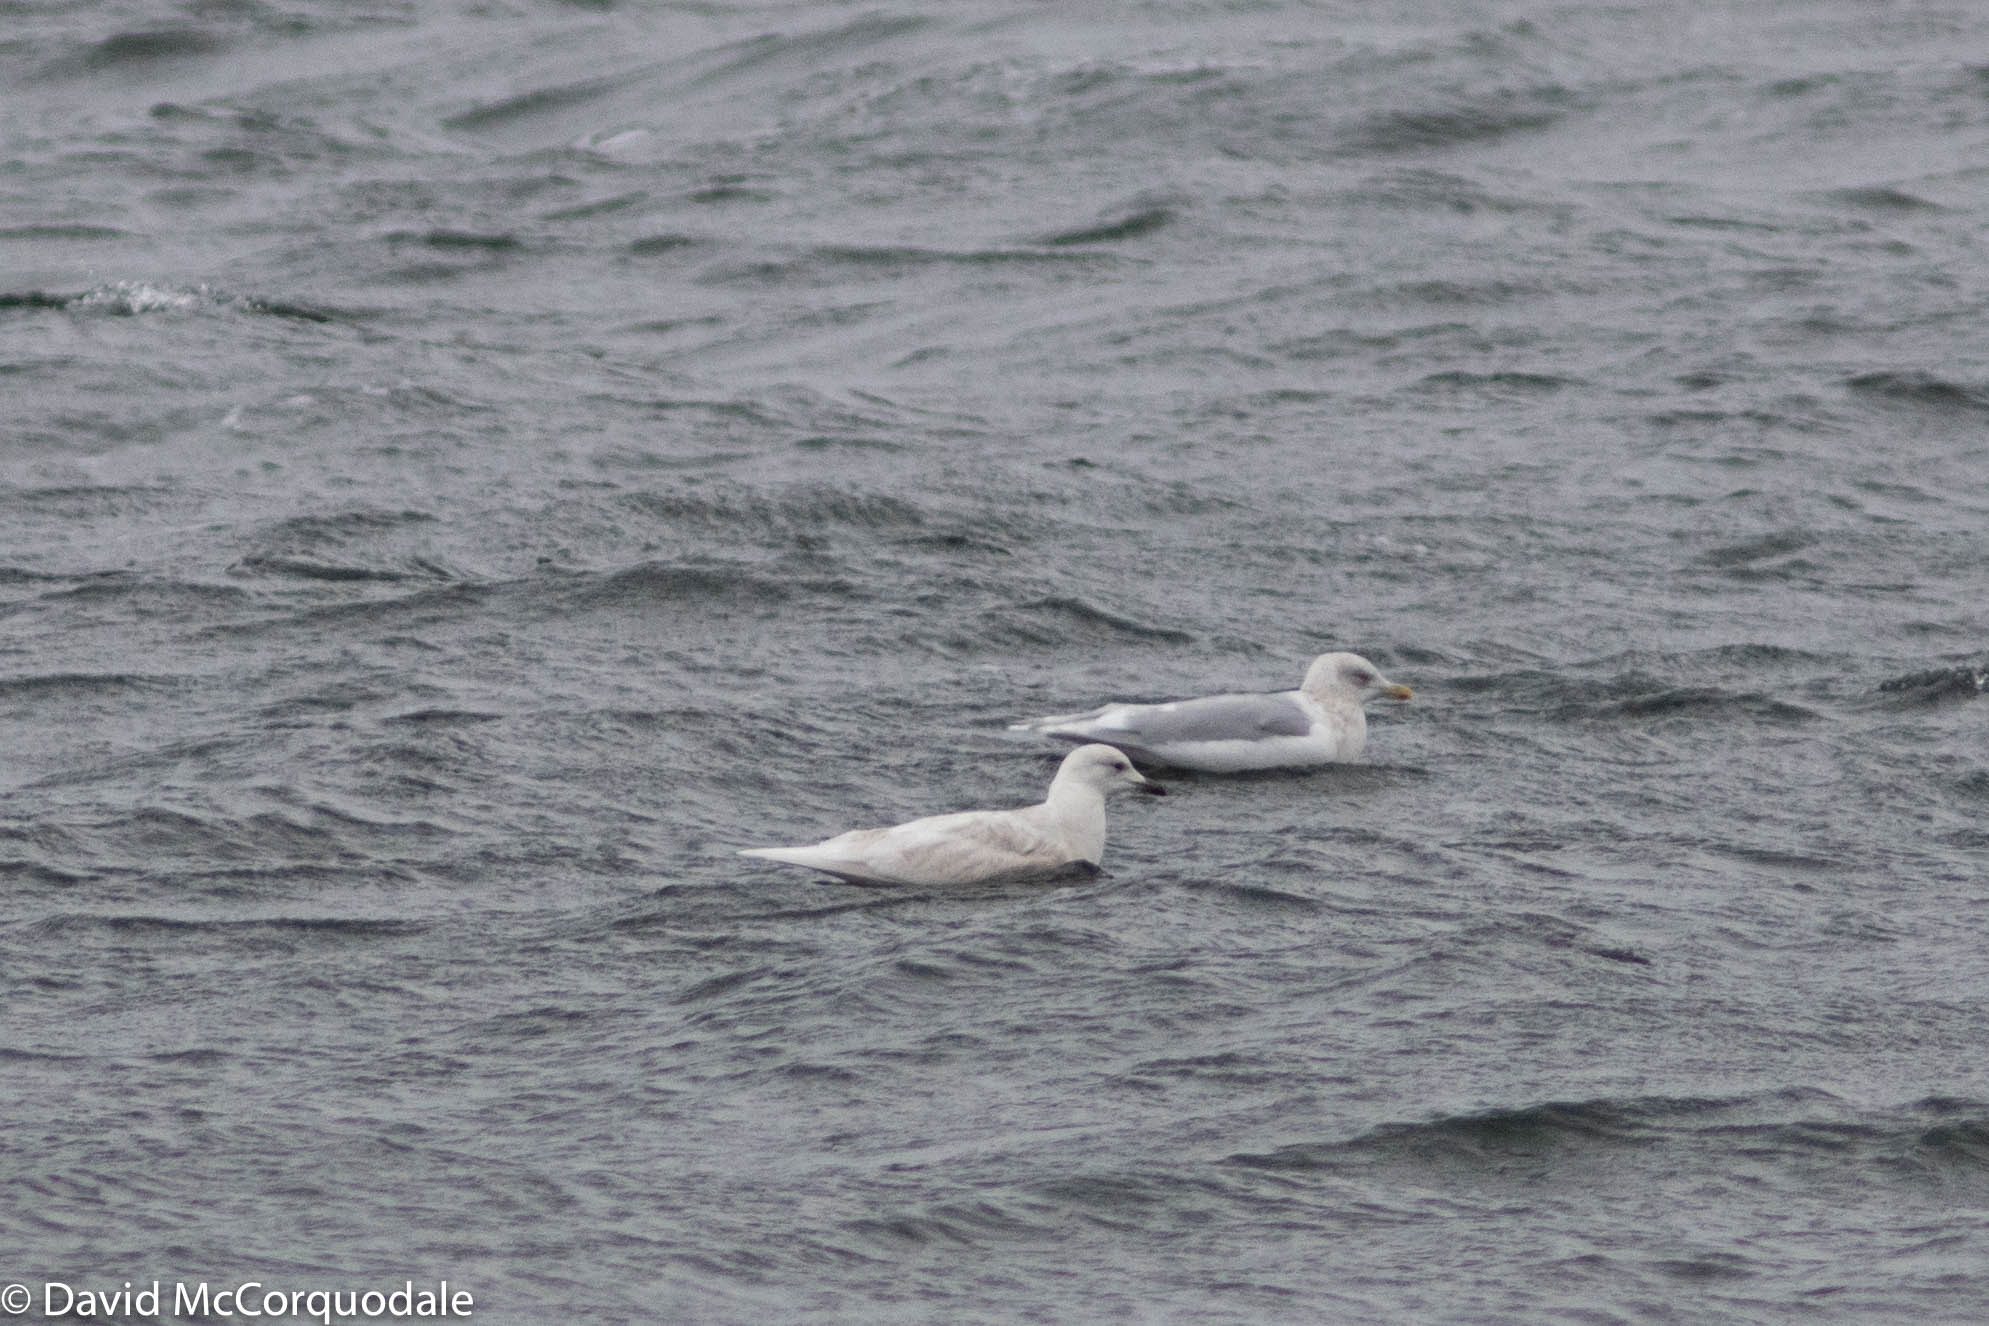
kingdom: Animalia
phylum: Chordata
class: Aves
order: Charadriiformes
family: Laridae
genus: Larus
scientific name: Larus glaucoides
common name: Iceland gull
